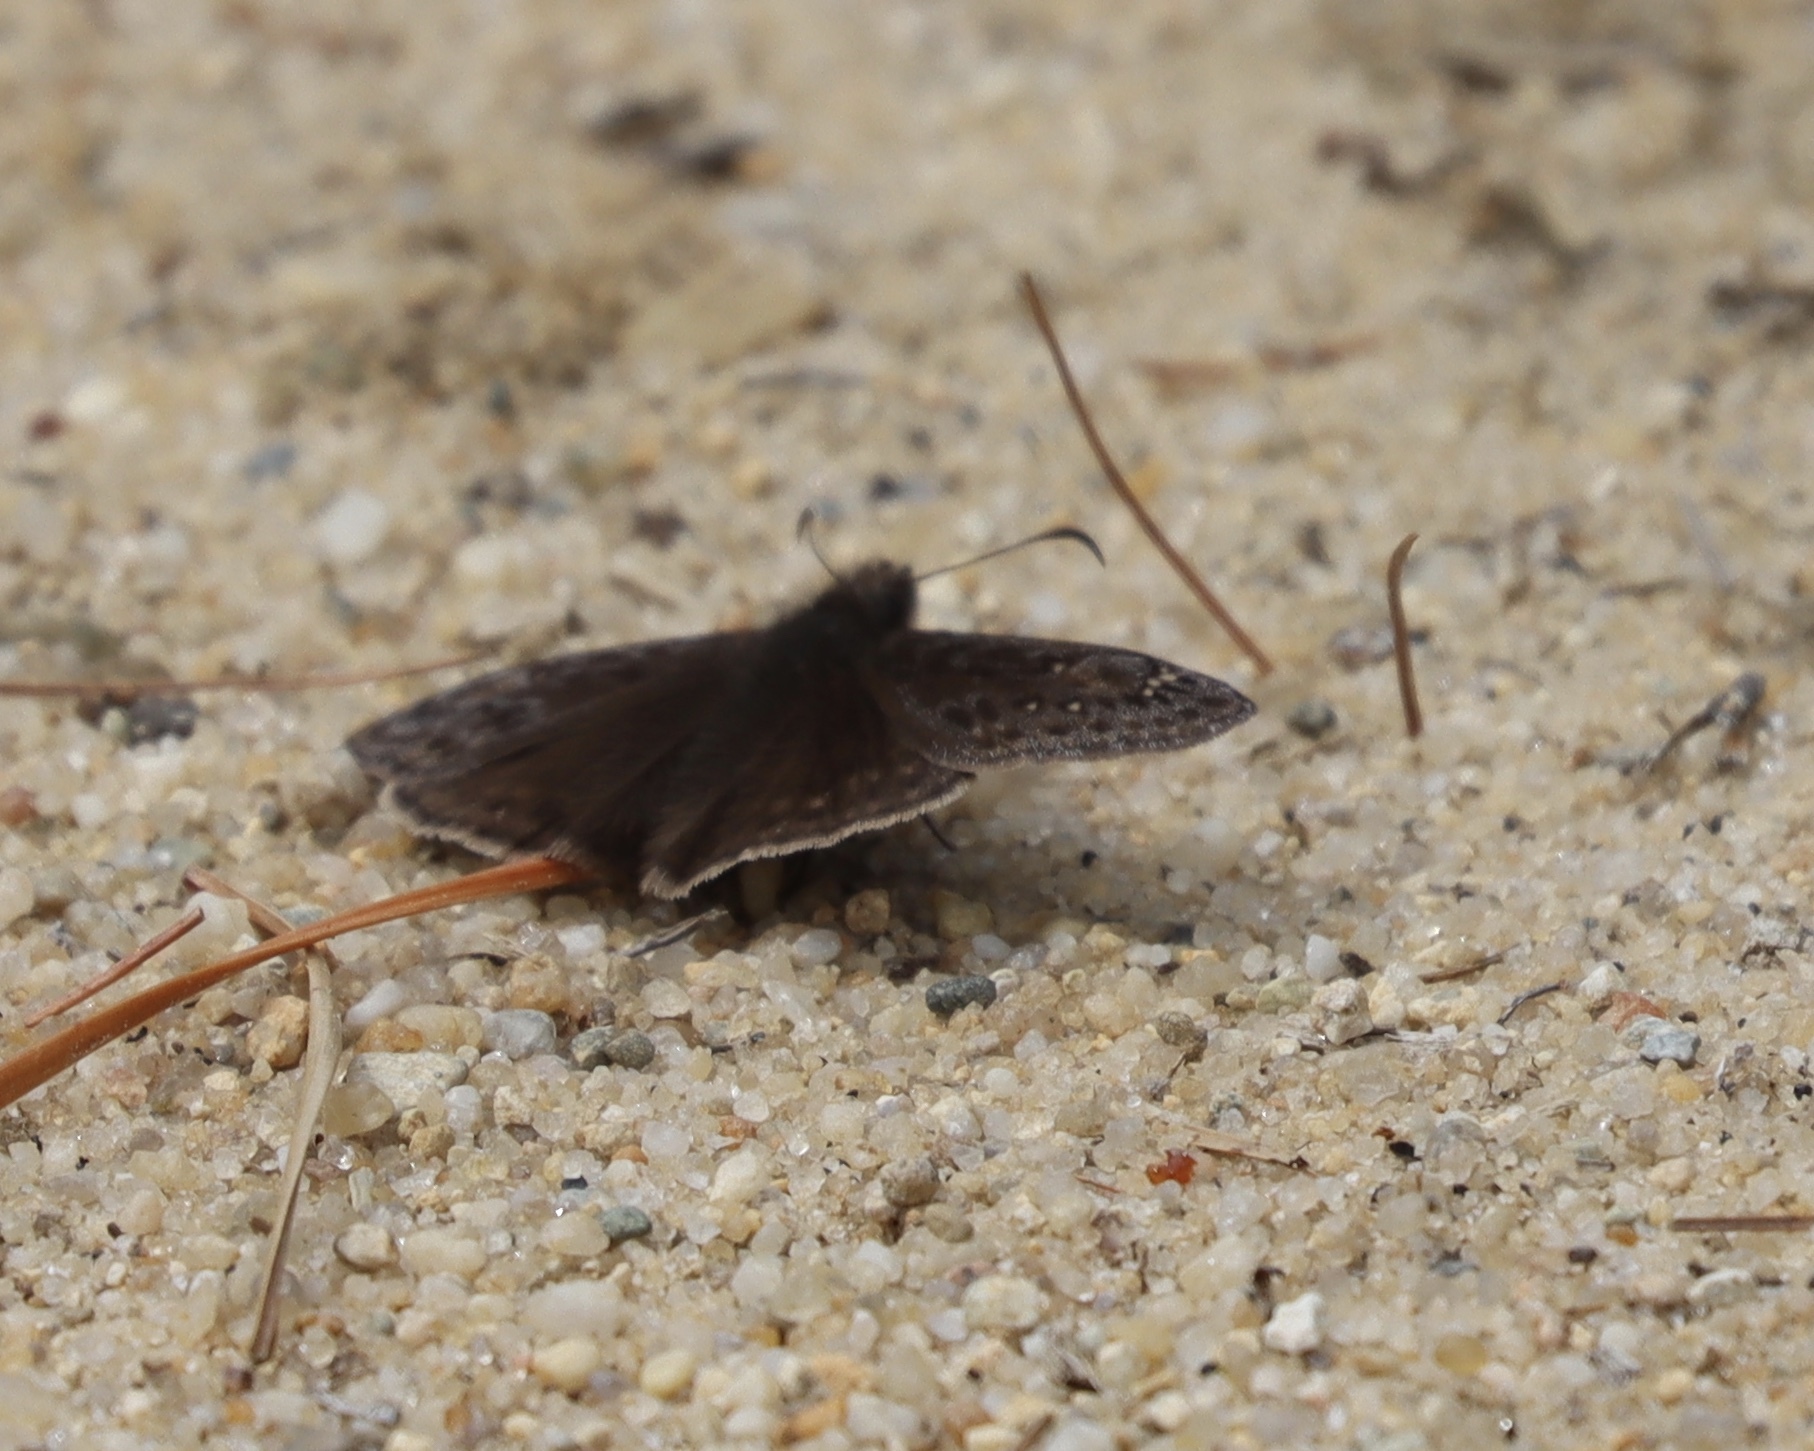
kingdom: Animalia
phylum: Arthropoda
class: Insecta
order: Lepidoptera
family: Hesperiidae
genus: Erynnis
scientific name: Erynnis juvenalis
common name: Juvenal's duskywing
